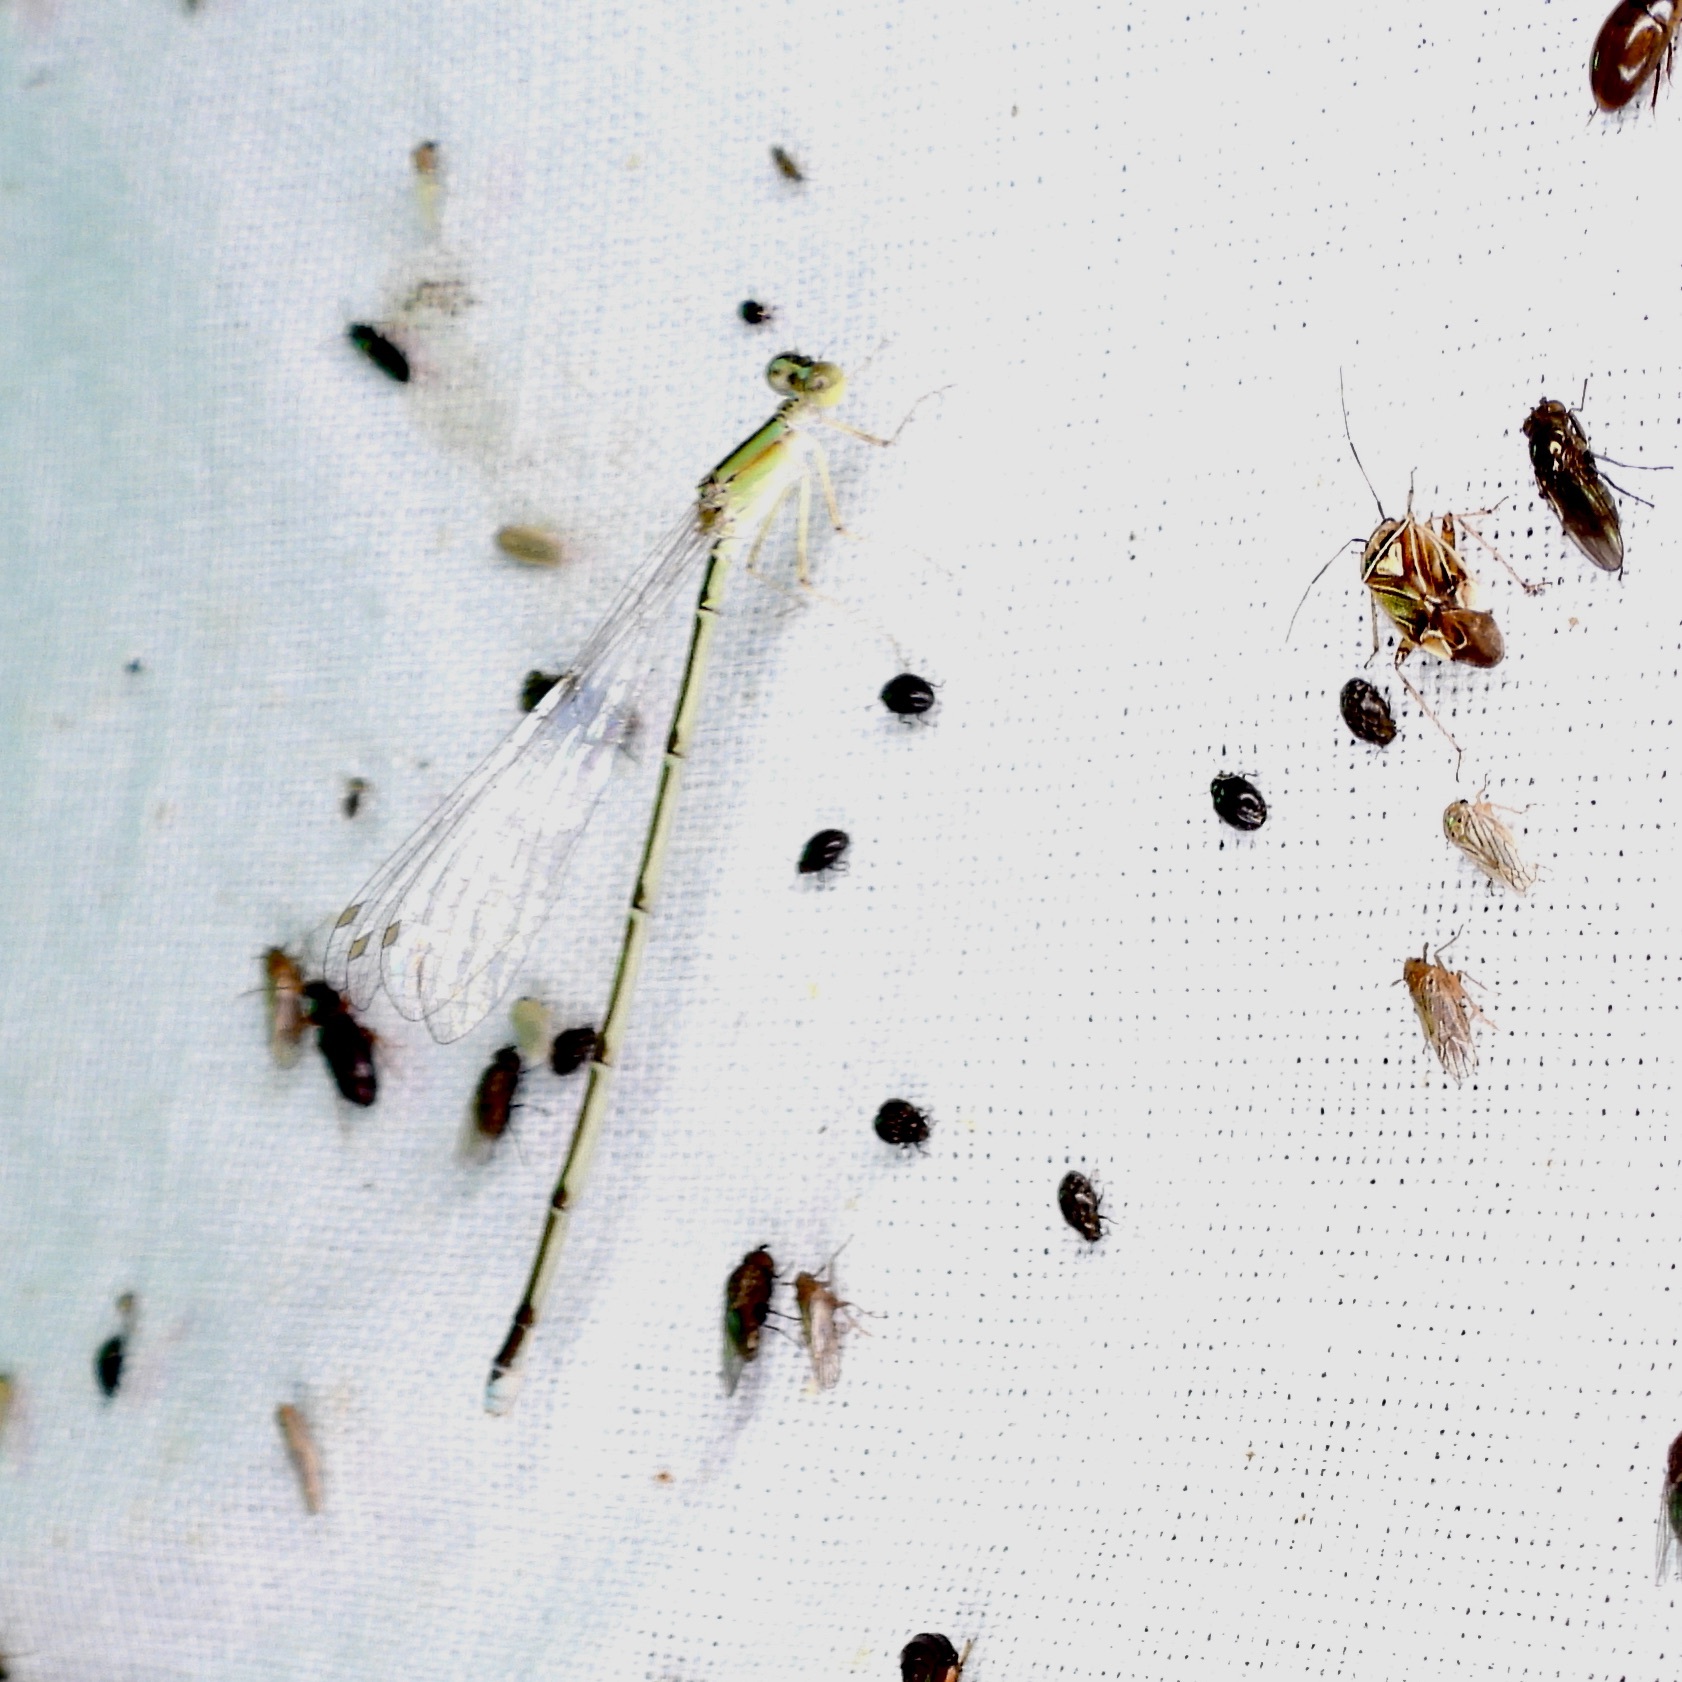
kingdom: Animalia
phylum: Arthropoda
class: Insecta
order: Odonata
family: Coenagrionidae
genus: Enallagma
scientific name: Enallagma vesperum
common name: Vesper bluet
